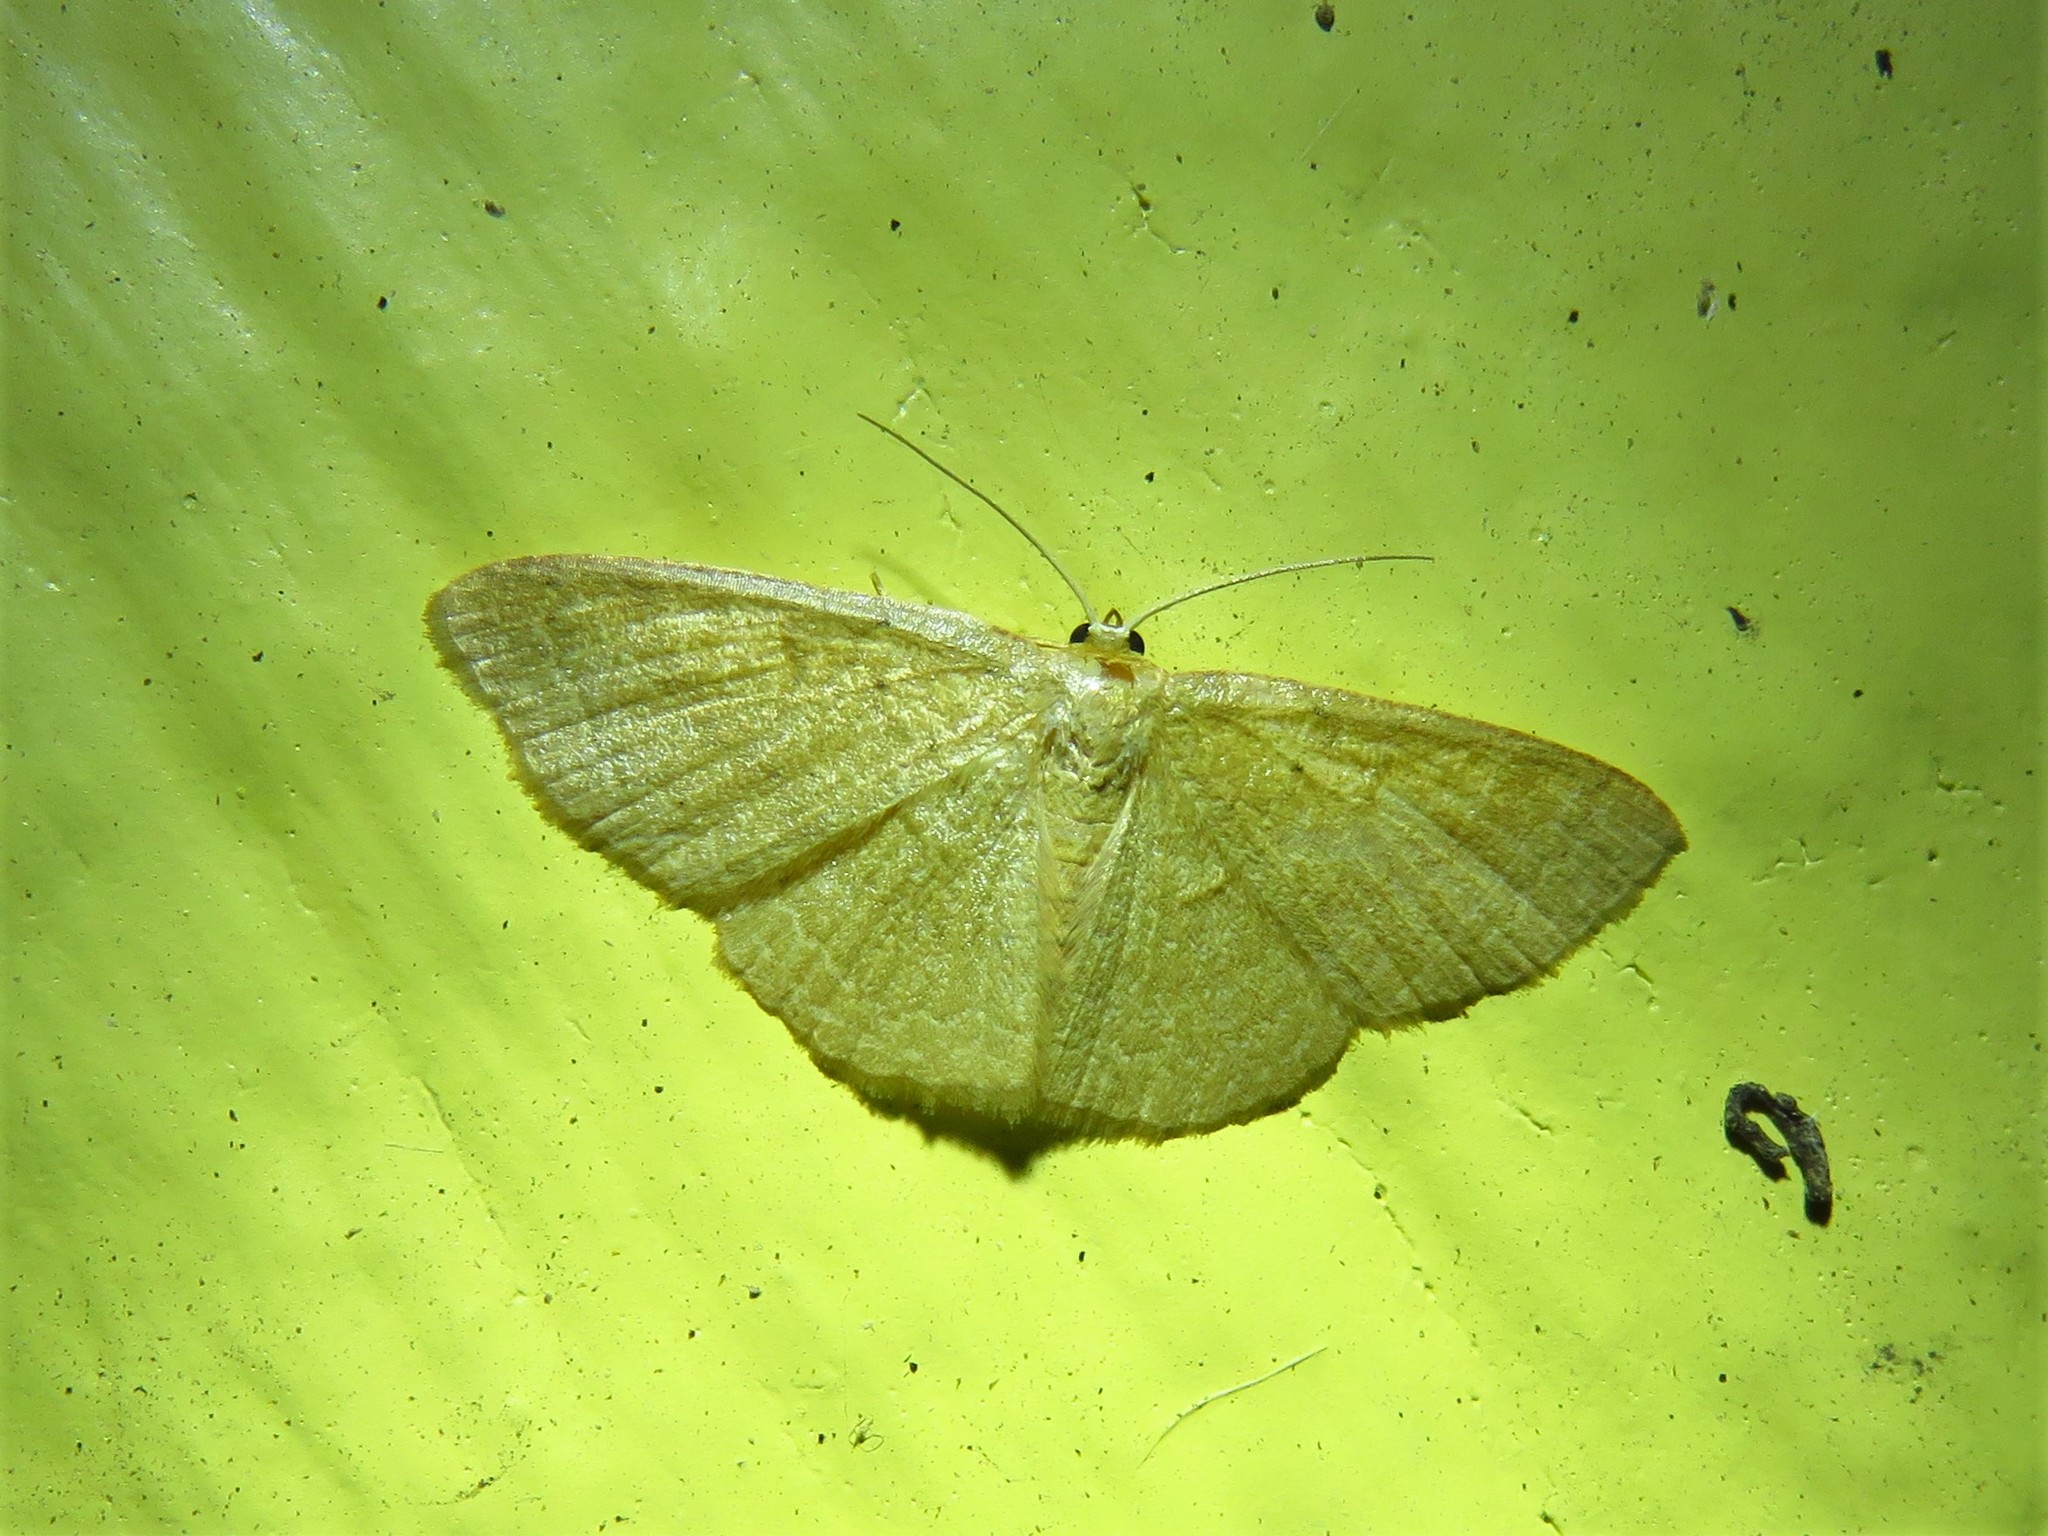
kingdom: Animalia
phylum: Arthropoda
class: Insecta
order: Lepidoptera
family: Geometridae
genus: Pleuroprucha
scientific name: Pleuroprucha insulsaria
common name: Common tan wave
